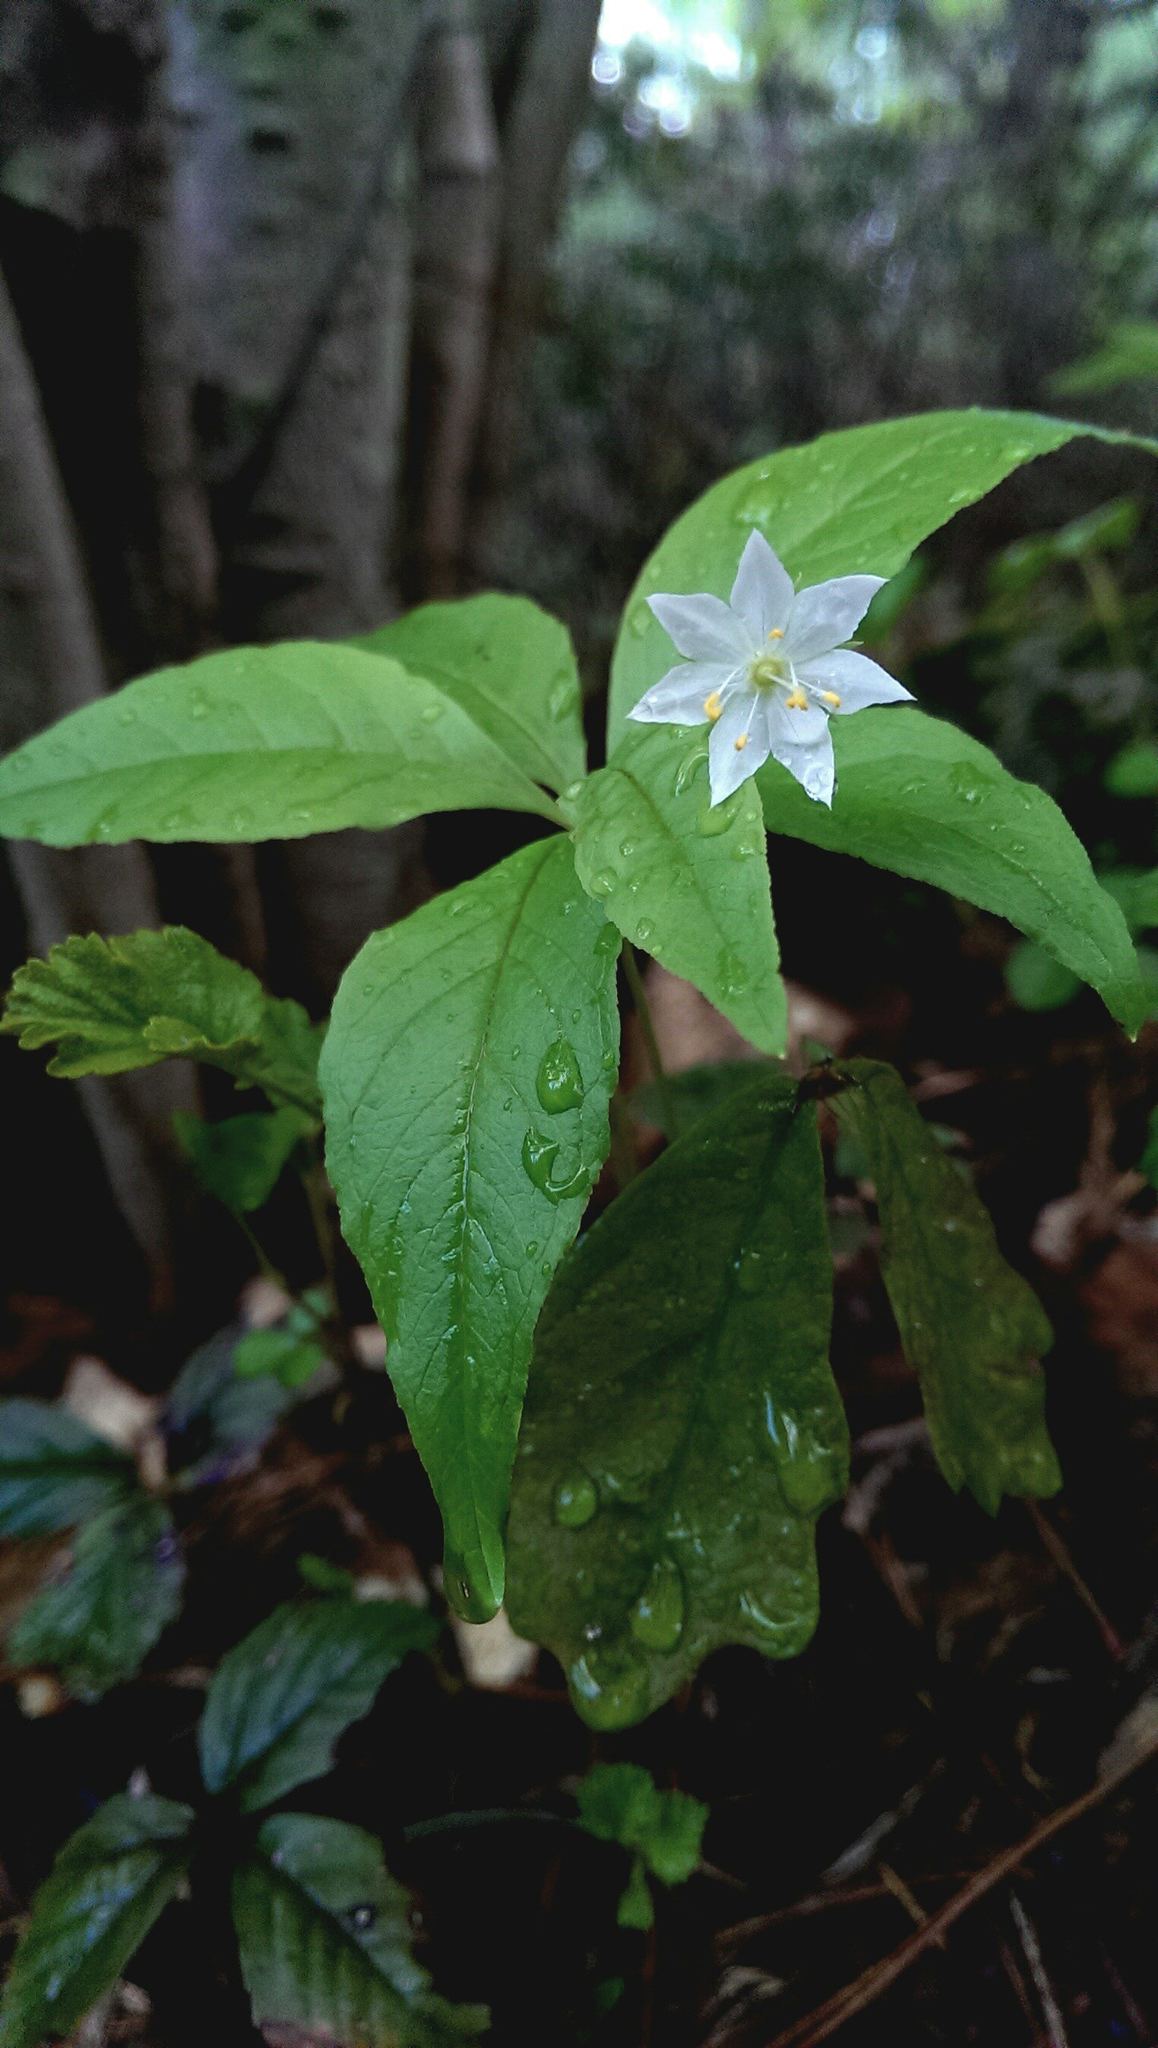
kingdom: Plantae
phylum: Tracheophyta
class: Magnoliopsida
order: Ericales
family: Primulaceae
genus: Lysimachia
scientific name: Lysimachia borealis
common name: American starflower
